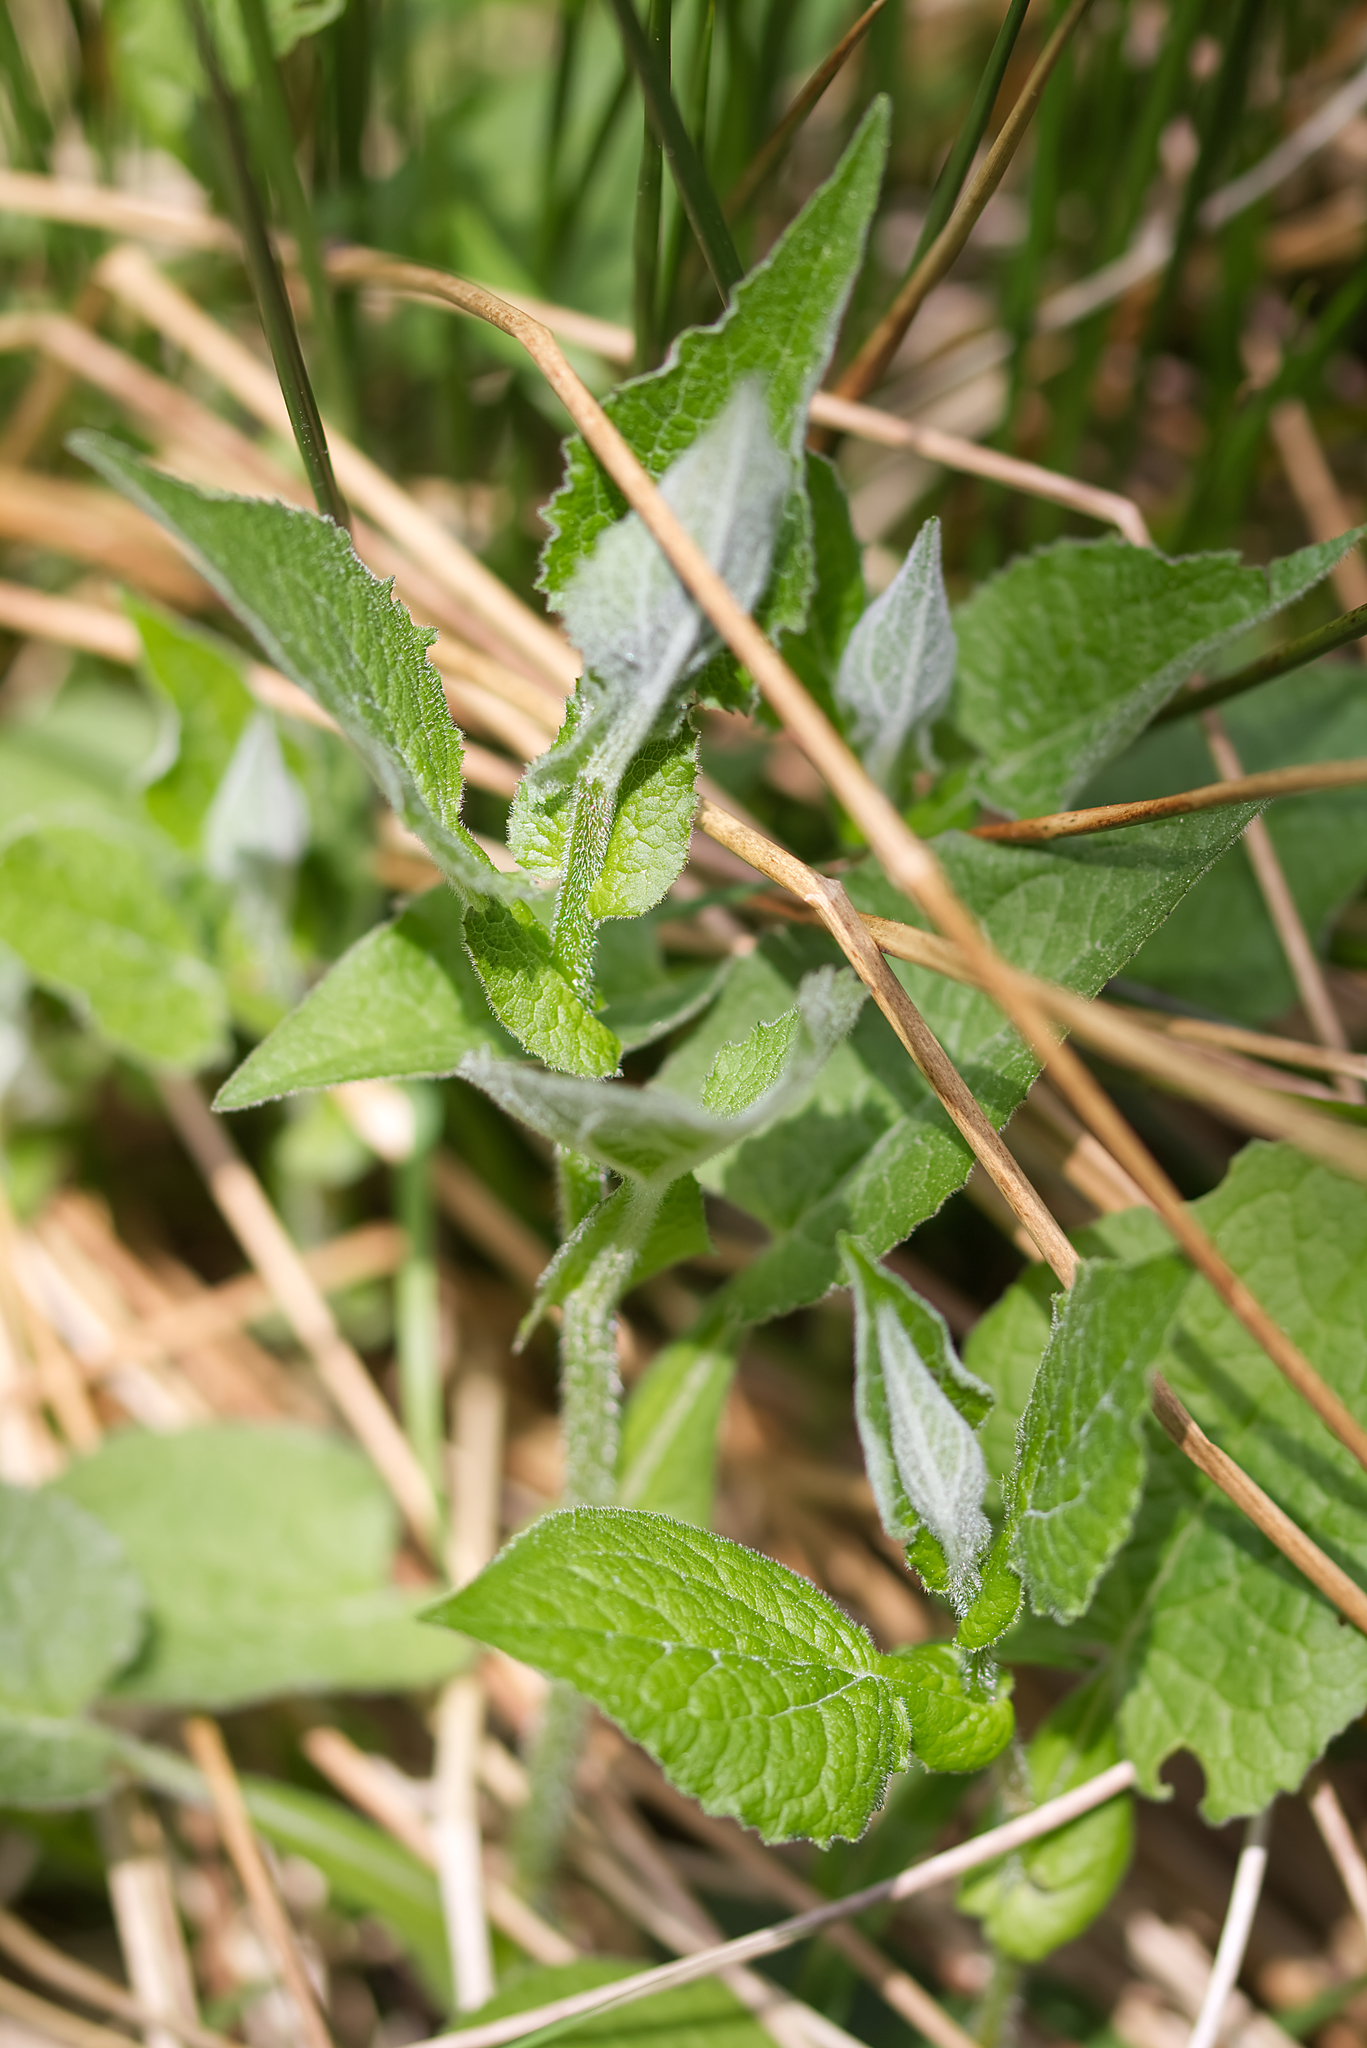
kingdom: Plantae
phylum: Tracheophyta
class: Magnoliopsida
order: Asterales
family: Asteraceae
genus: Doronicum
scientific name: Doronicum austriacum
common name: Austrian leopard's-bane
